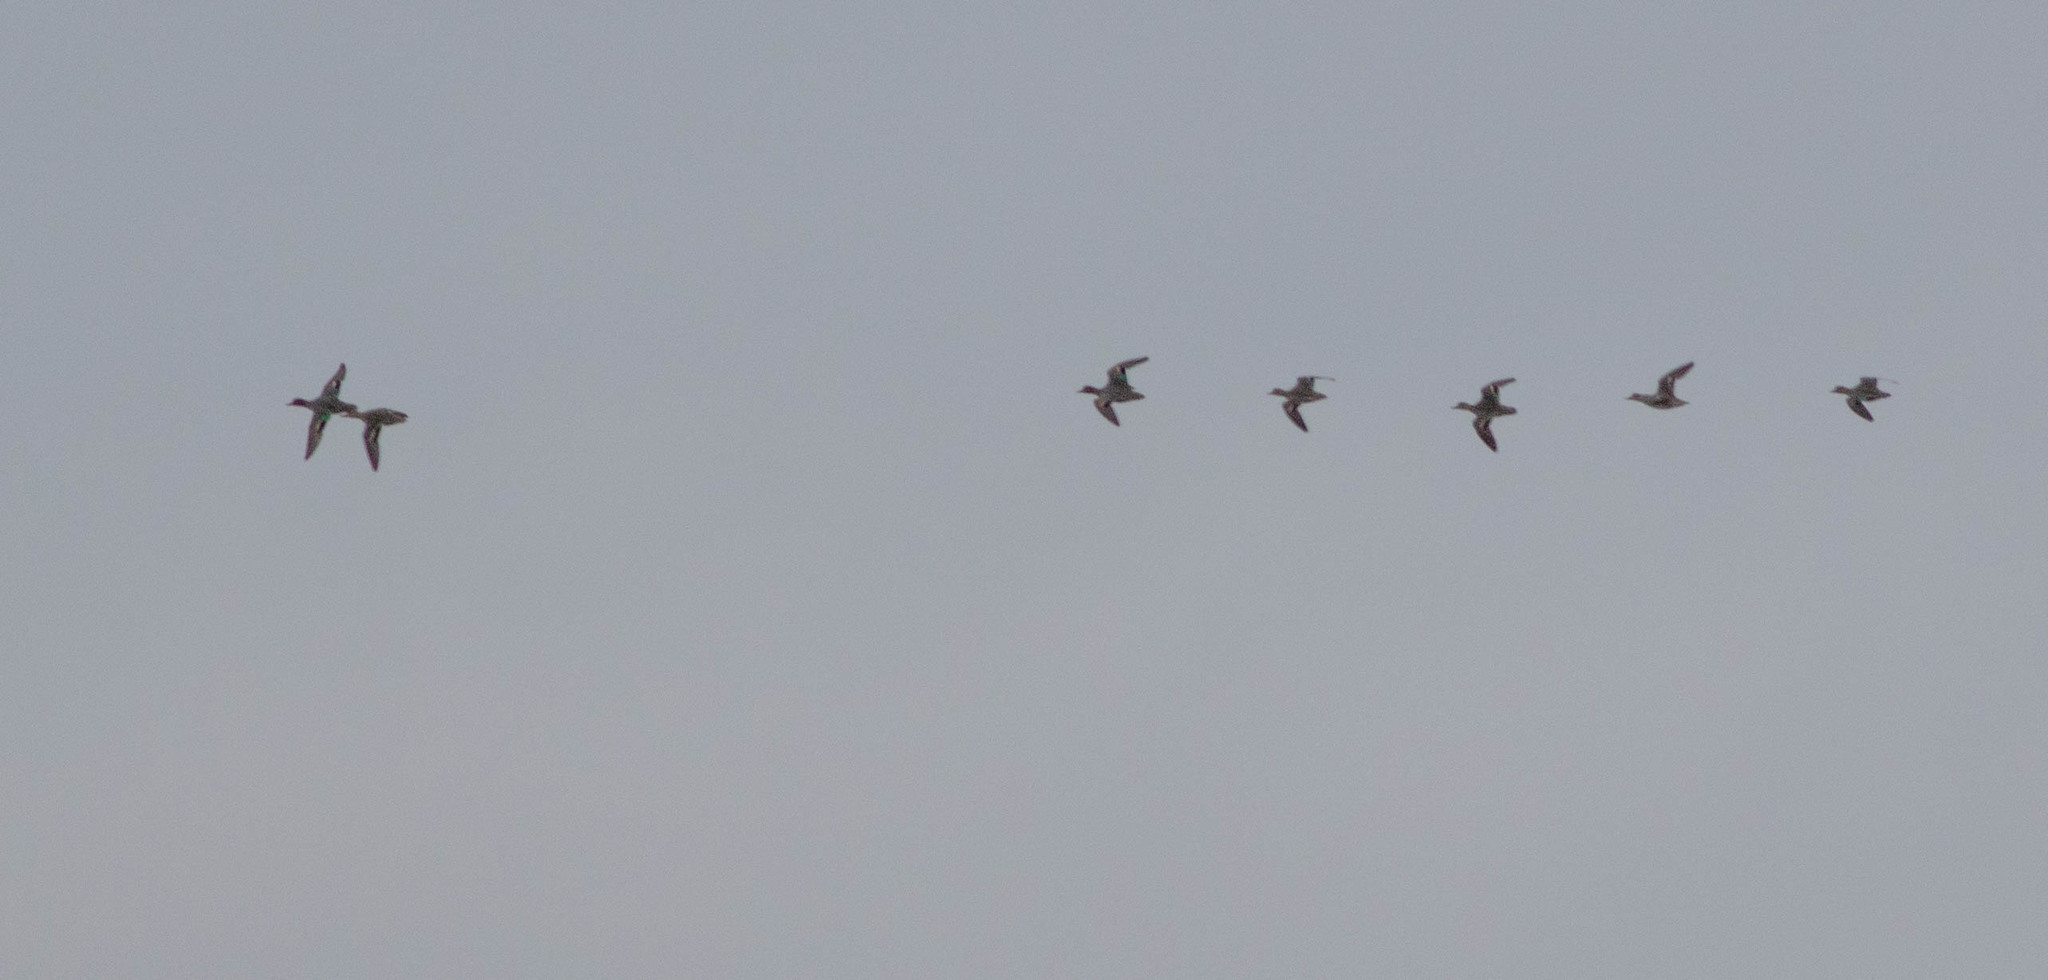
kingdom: Animalia
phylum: Chordata
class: Aves
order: Anseriformes
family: Anatidae
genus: Anas
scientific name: Anas crecca
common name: Eurasian teal
